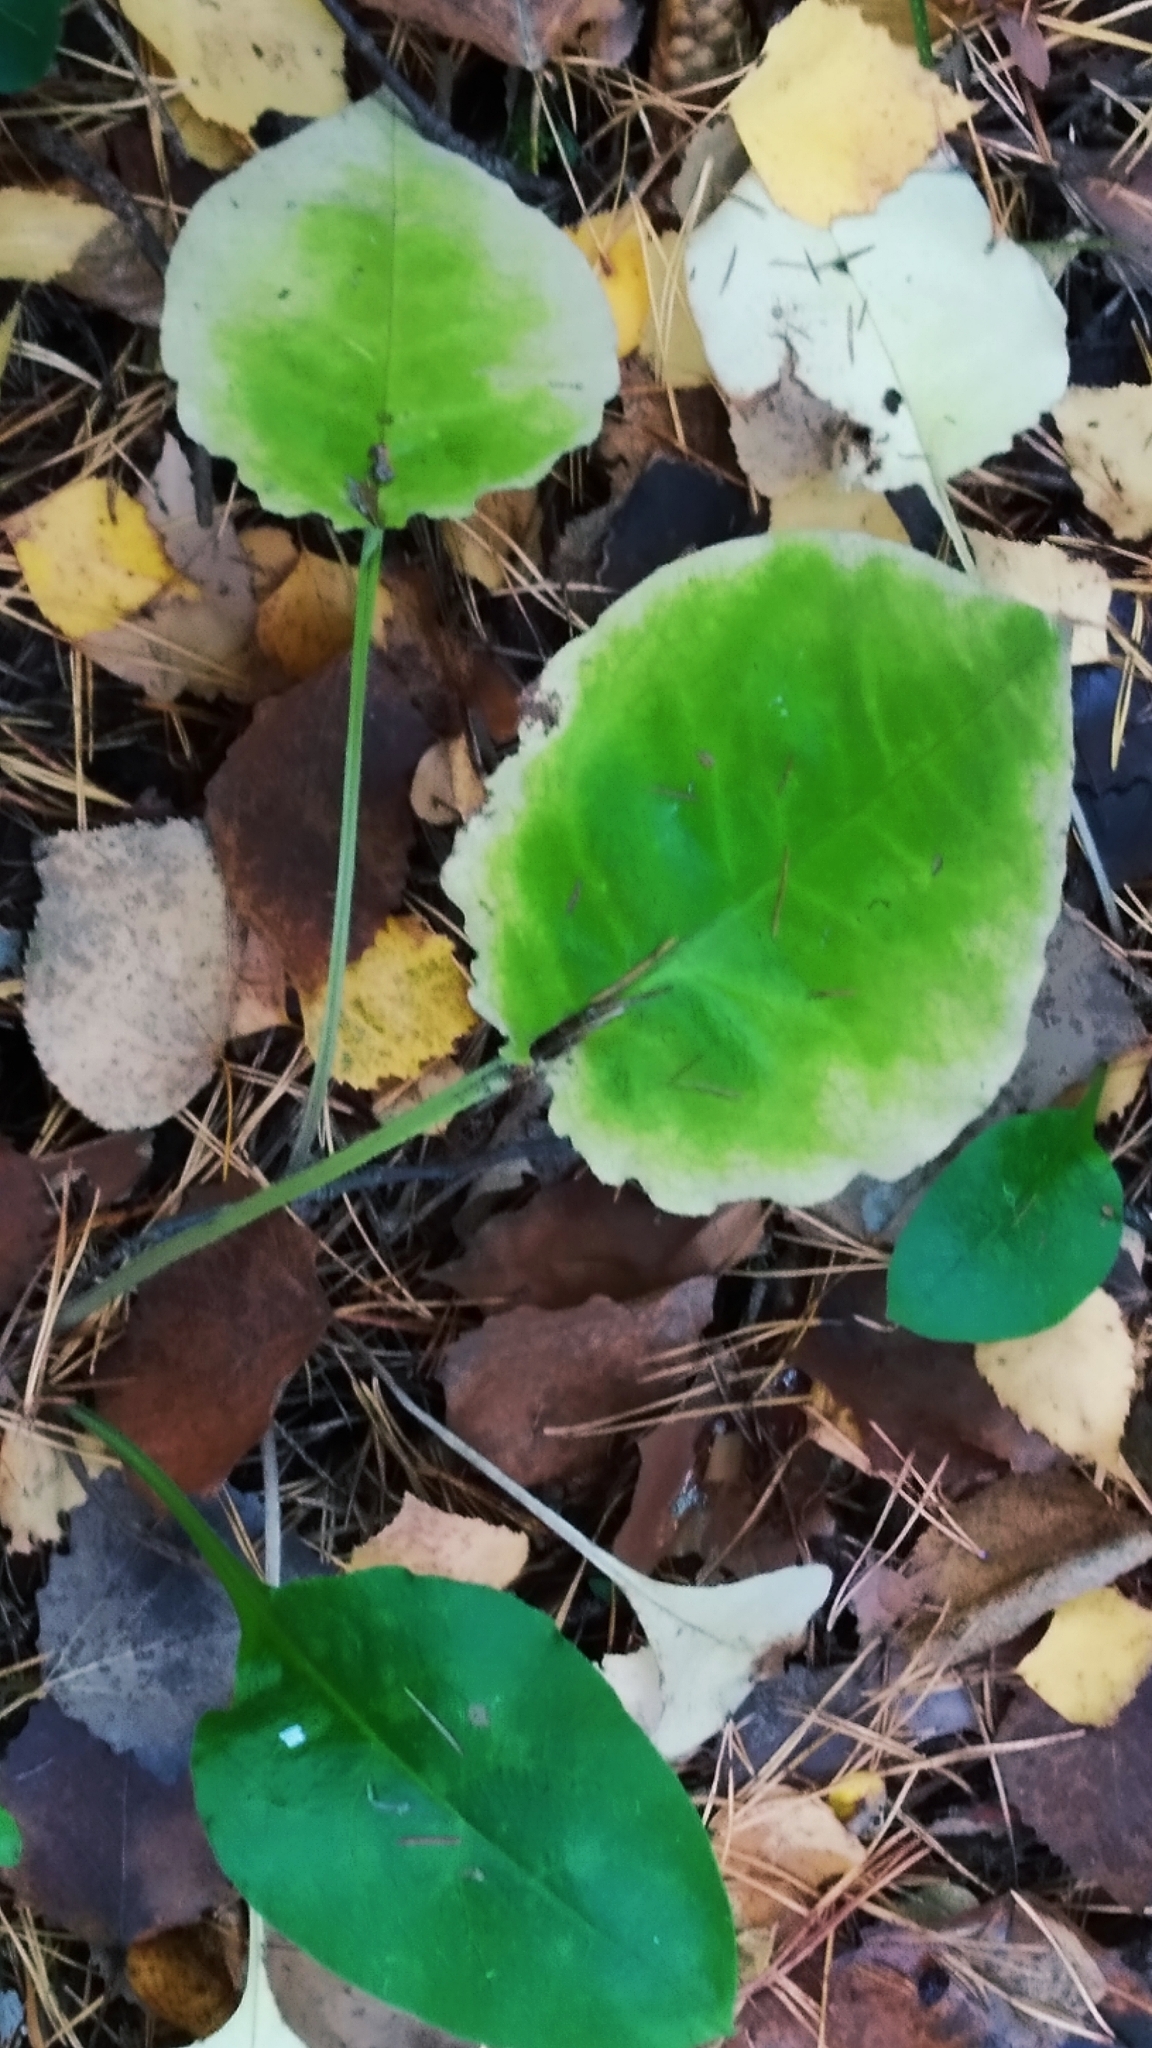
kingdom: Plantae
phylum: Tracheophyta
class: Magnoliopsida
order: Boraginales
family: Boraginaceae
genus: Pulmonaria
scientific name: Pulmonaria obscura
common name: Suffolk lungwort
